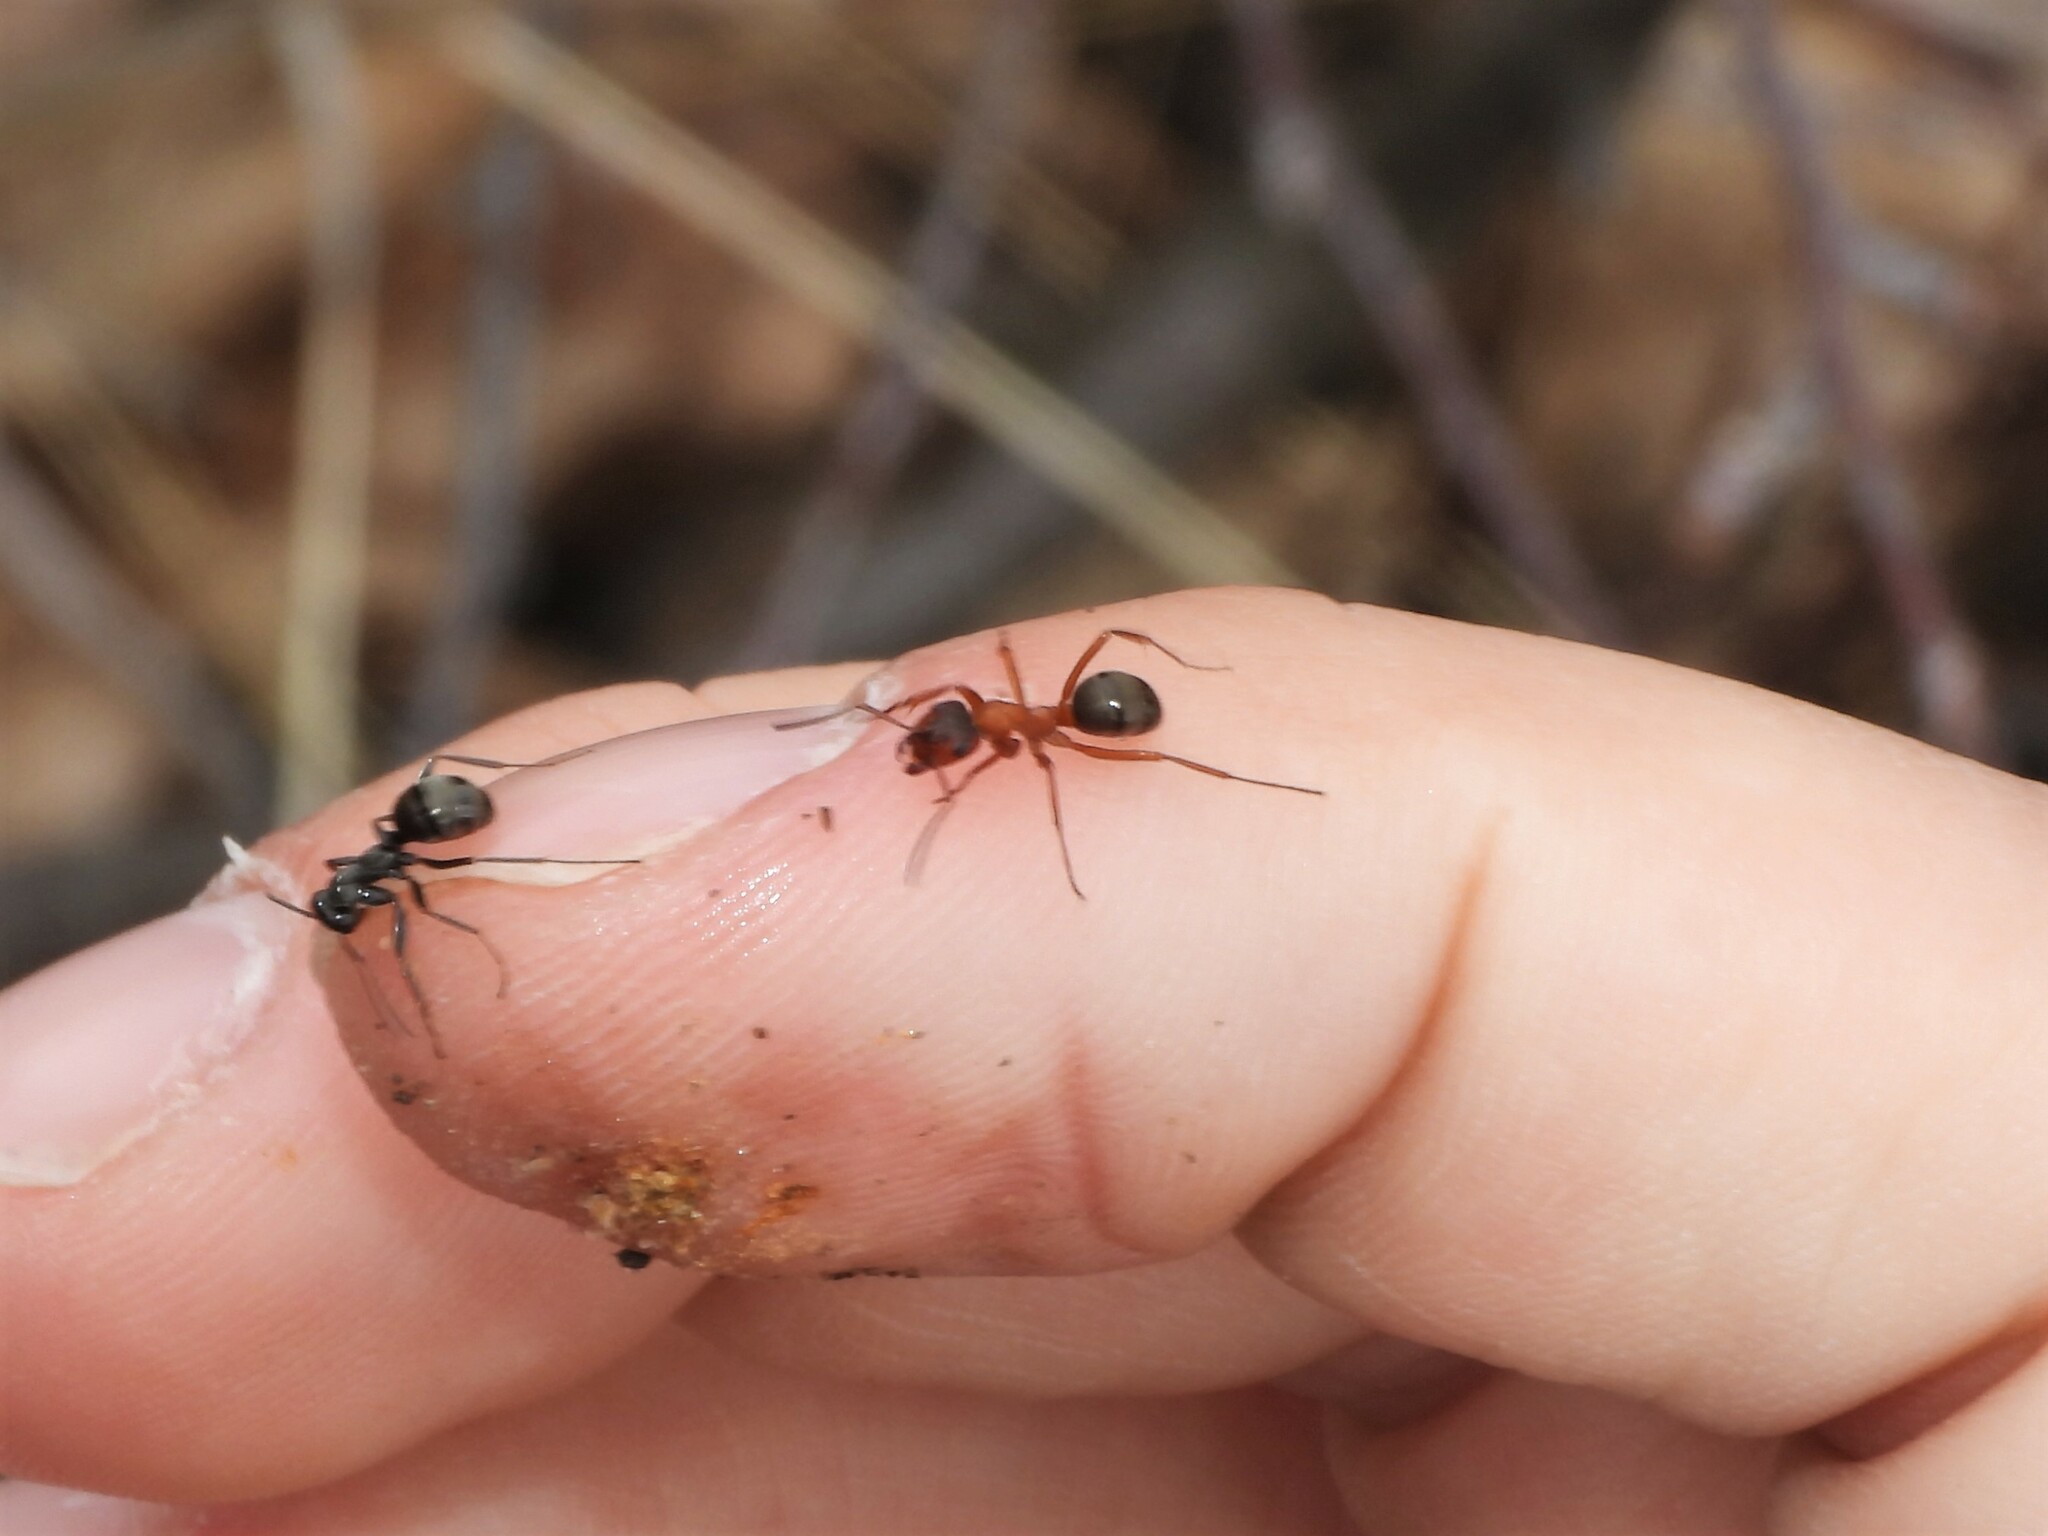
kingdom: Animalia
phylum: Arthropoda
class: Insecta
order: Hymenoptera
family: Formicidae
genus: Formica
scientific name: Formica sanguinea
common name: Blood-red ant
